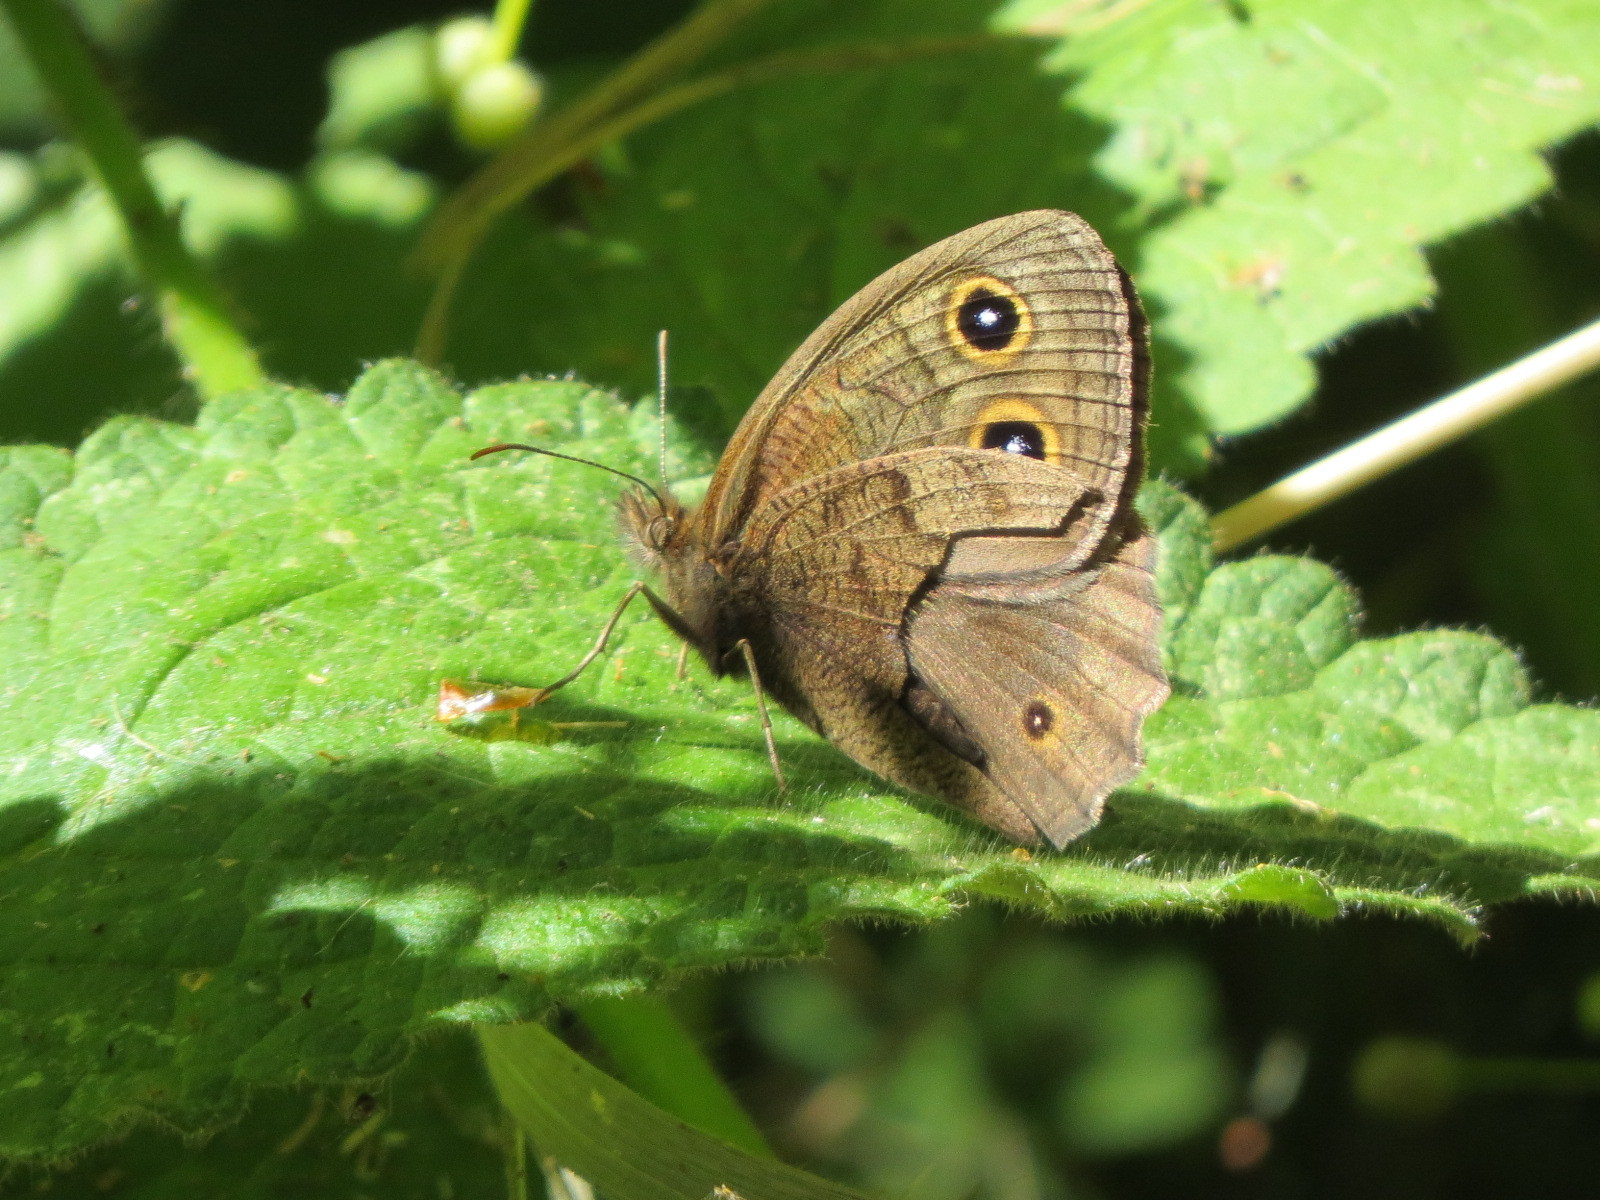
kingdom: Animalia
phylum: Arthropoda
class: Insecta
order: Lepidoptera
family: Nymphalidae
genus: Cercyonis
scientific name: Cercyonis pegala
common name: Common wood-nymph
